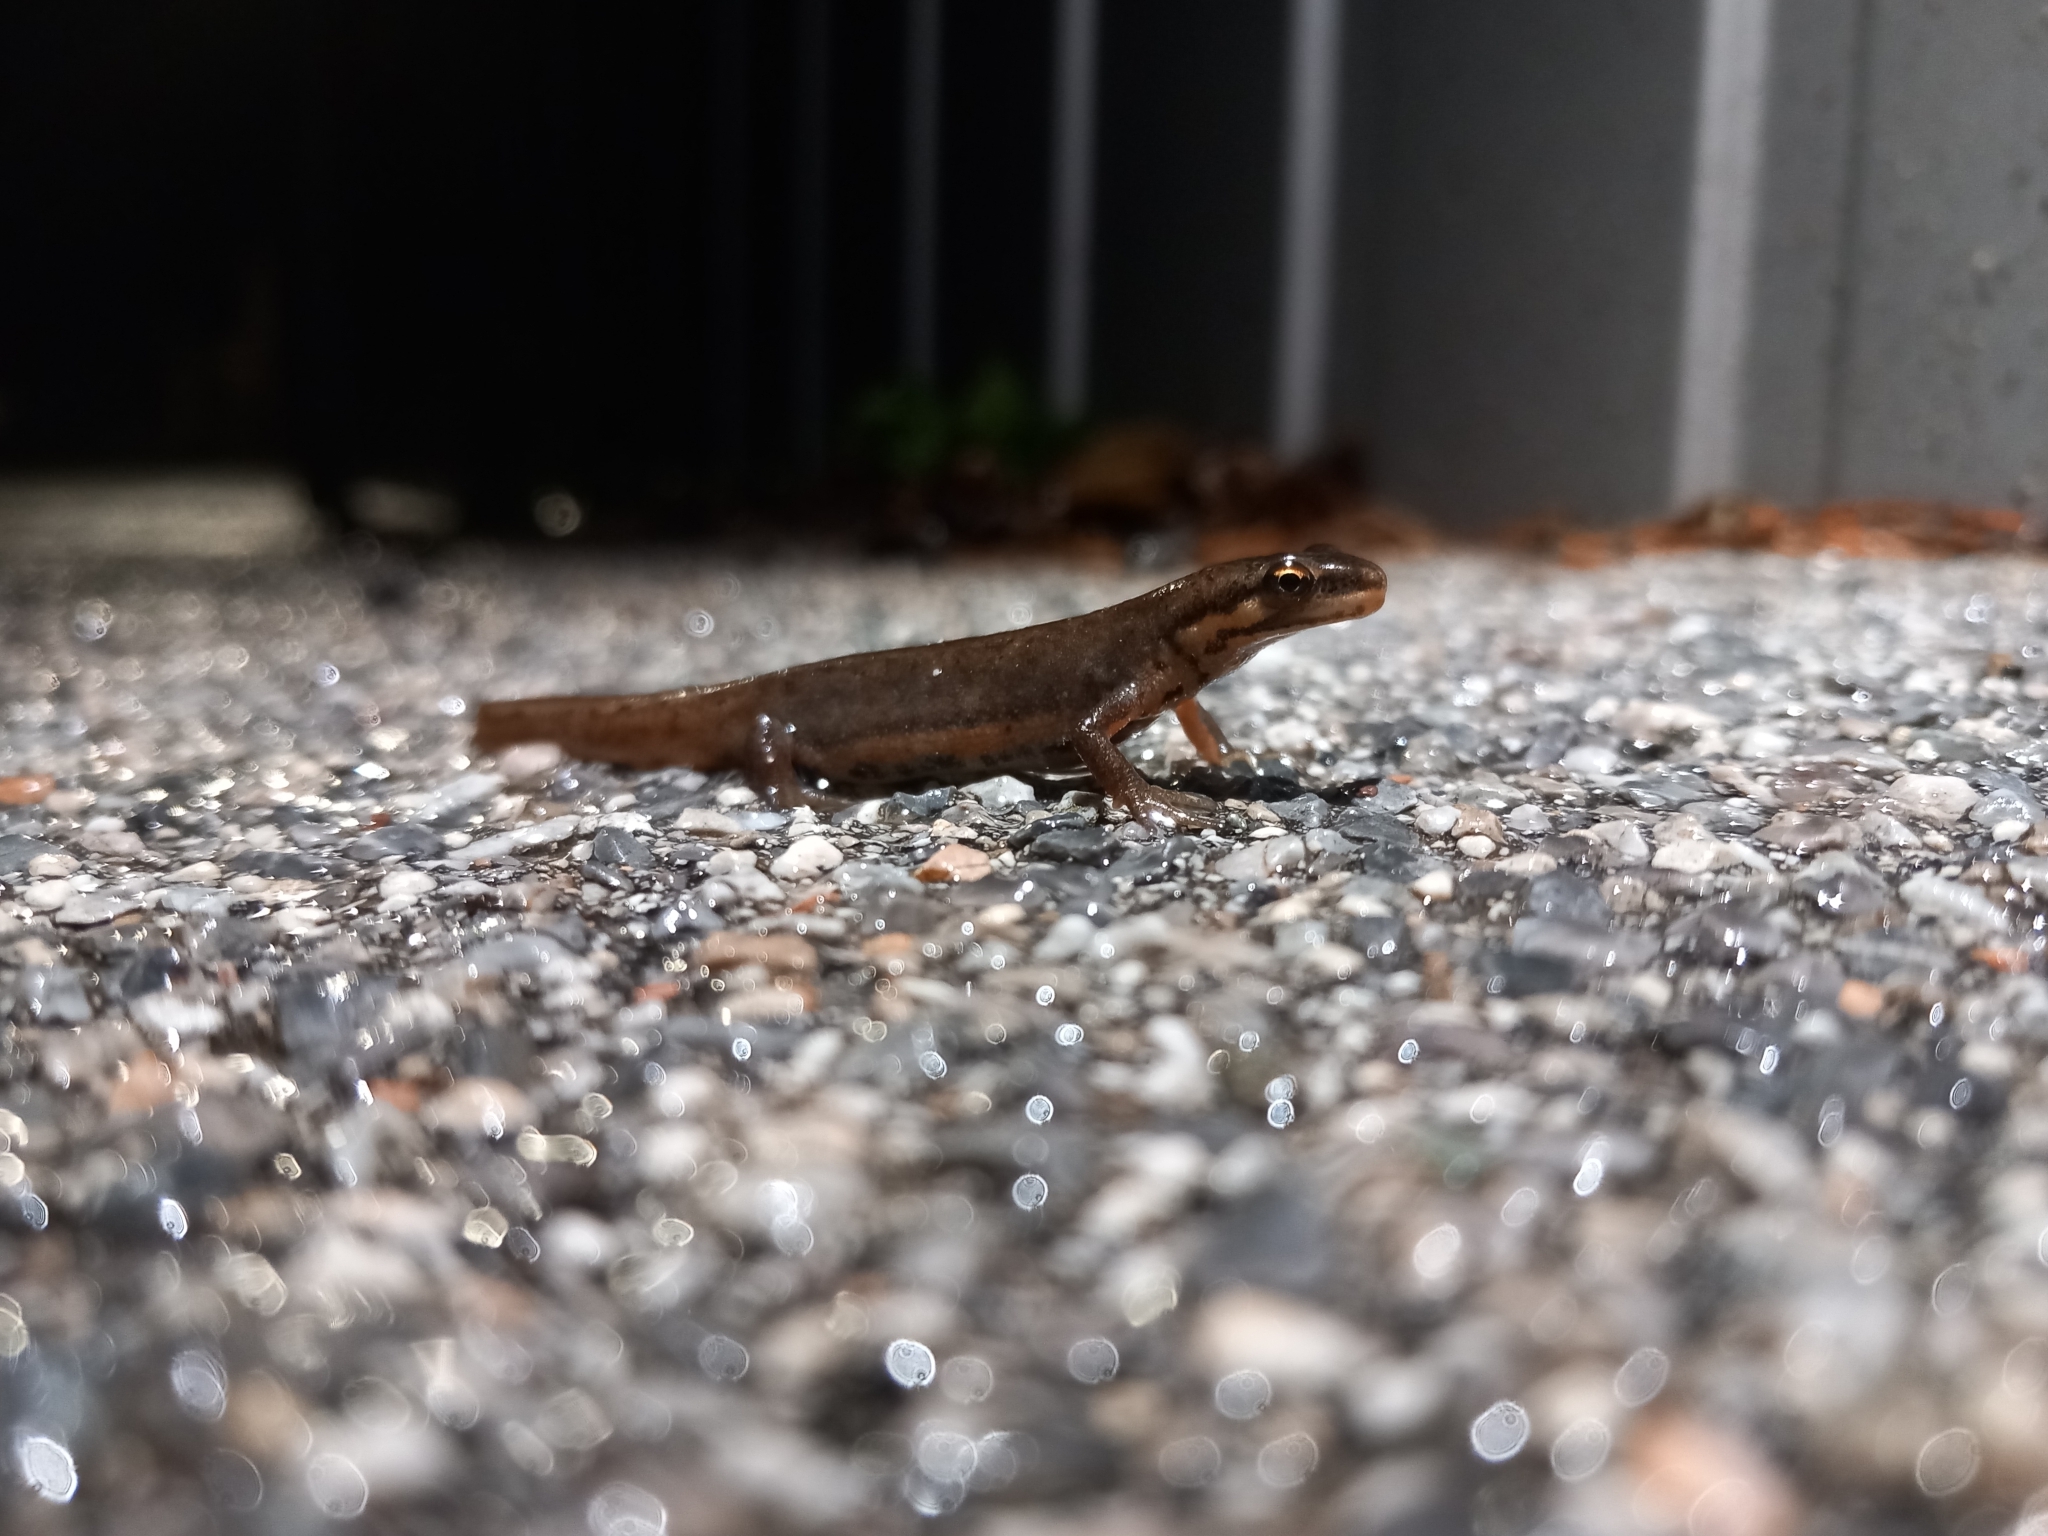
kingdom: Animalia
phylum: Chordata
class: Amphibia
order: Caudata
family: Salamandridae
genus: Lissotriton
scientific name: Lissotriton vulgaris
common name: Smooth newt
